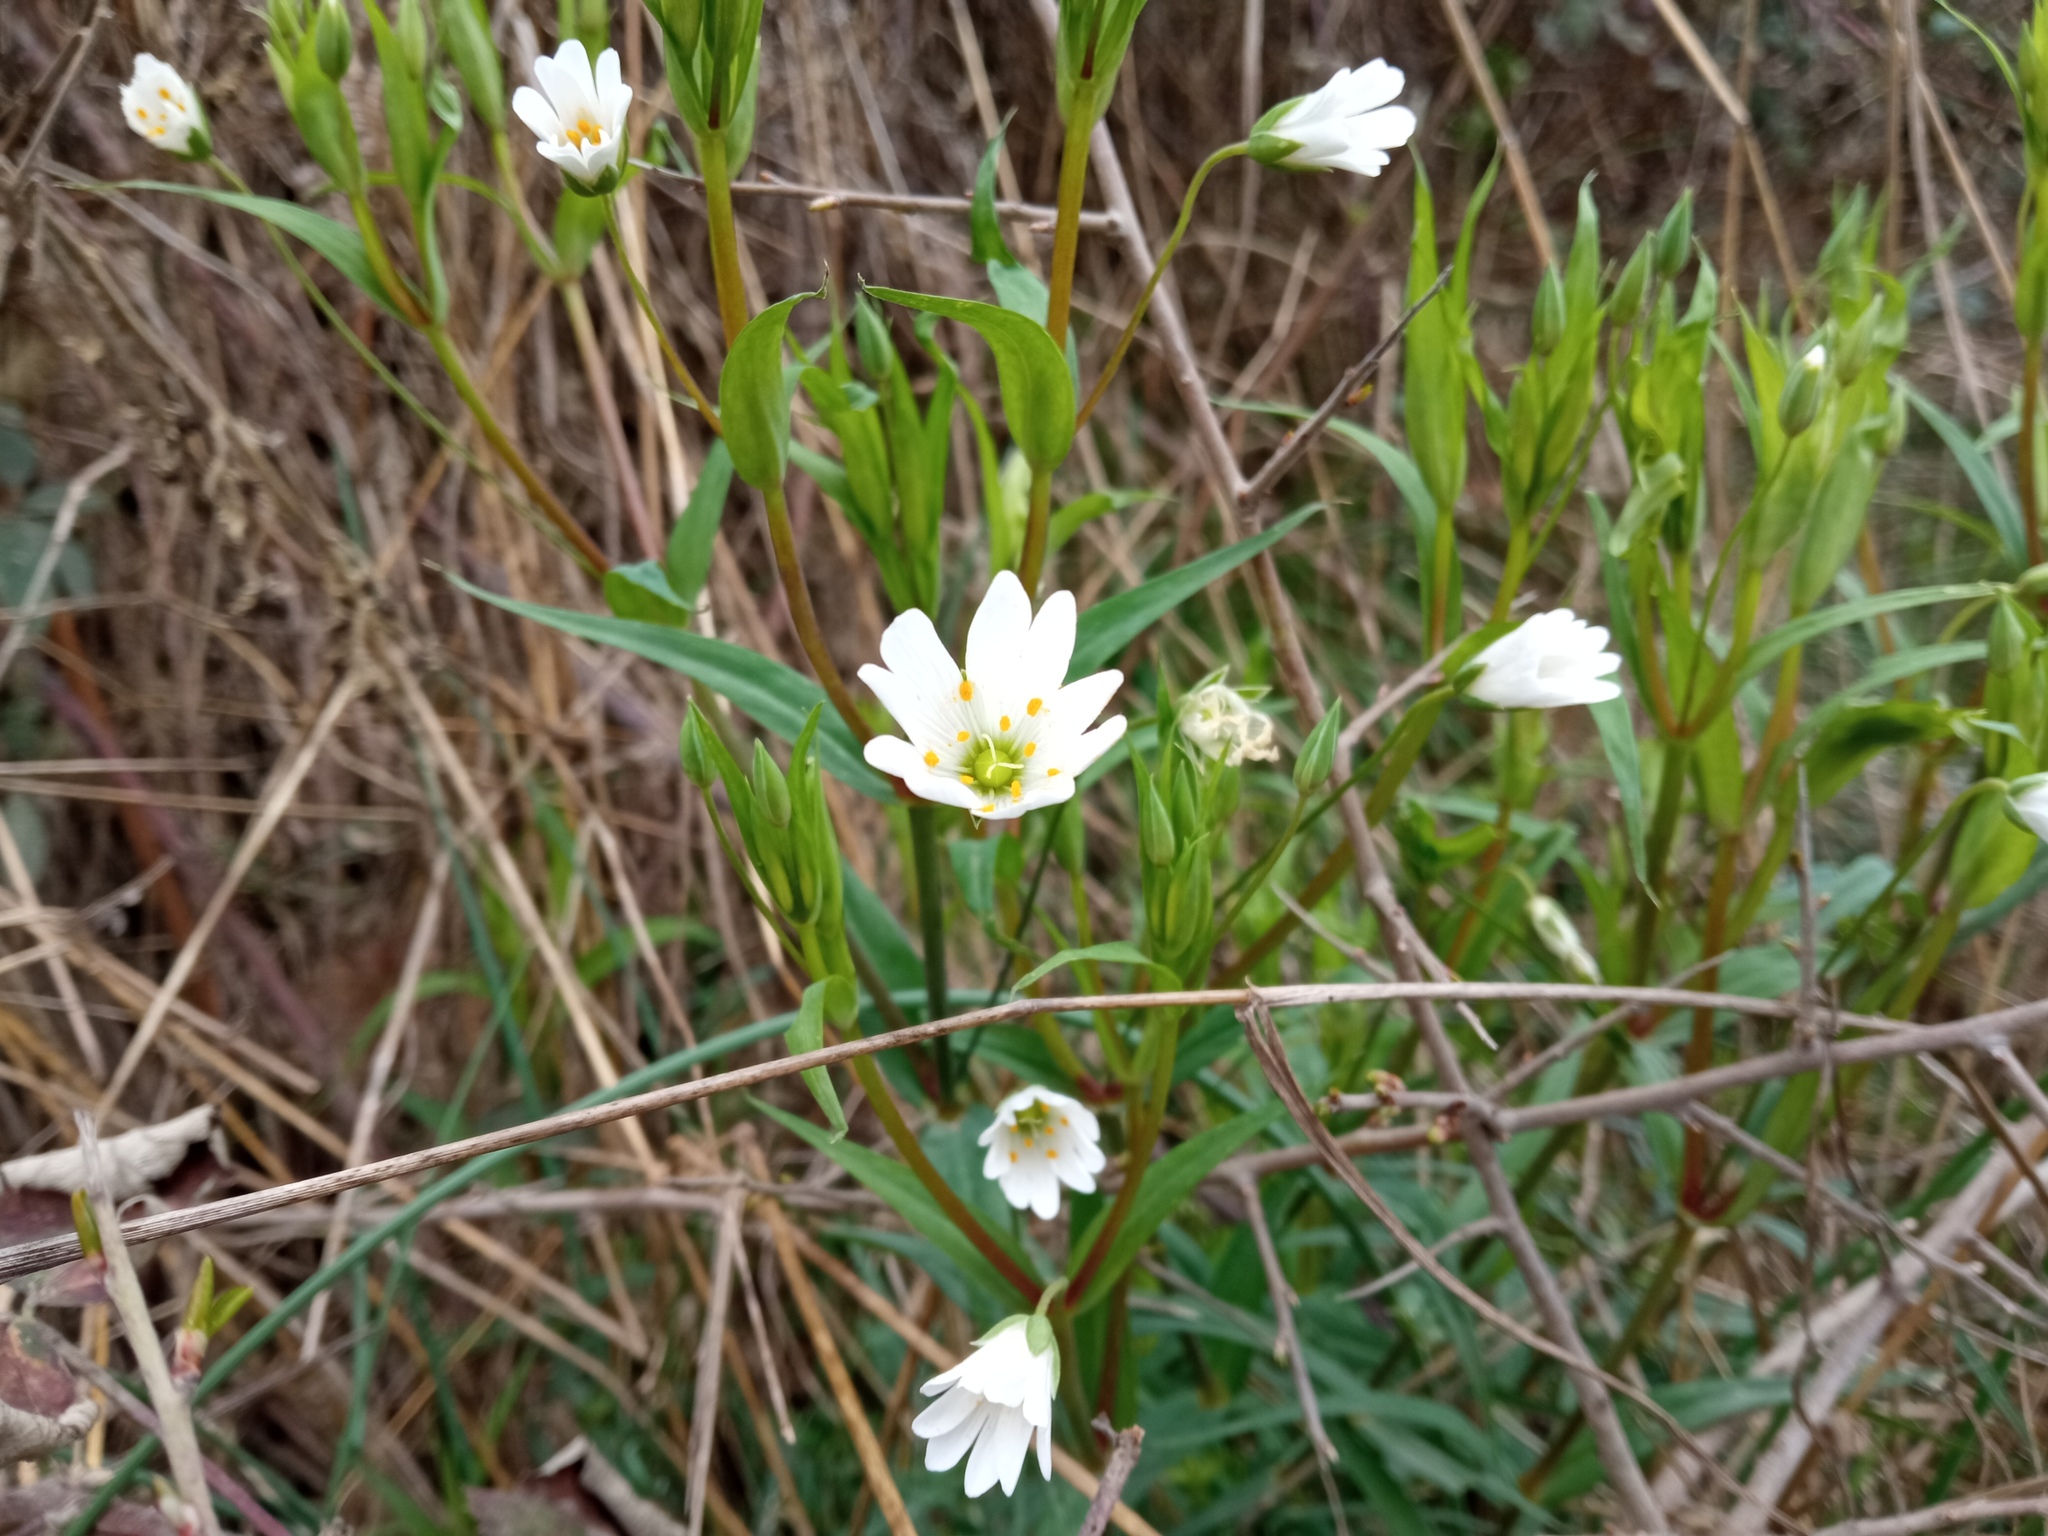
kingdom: Plantae
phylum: Tracheophyta
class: Magnoliopsida
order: Caryophyllales
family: Caryophyllaceae
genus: Rabelera
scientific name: Rabelera holostea
